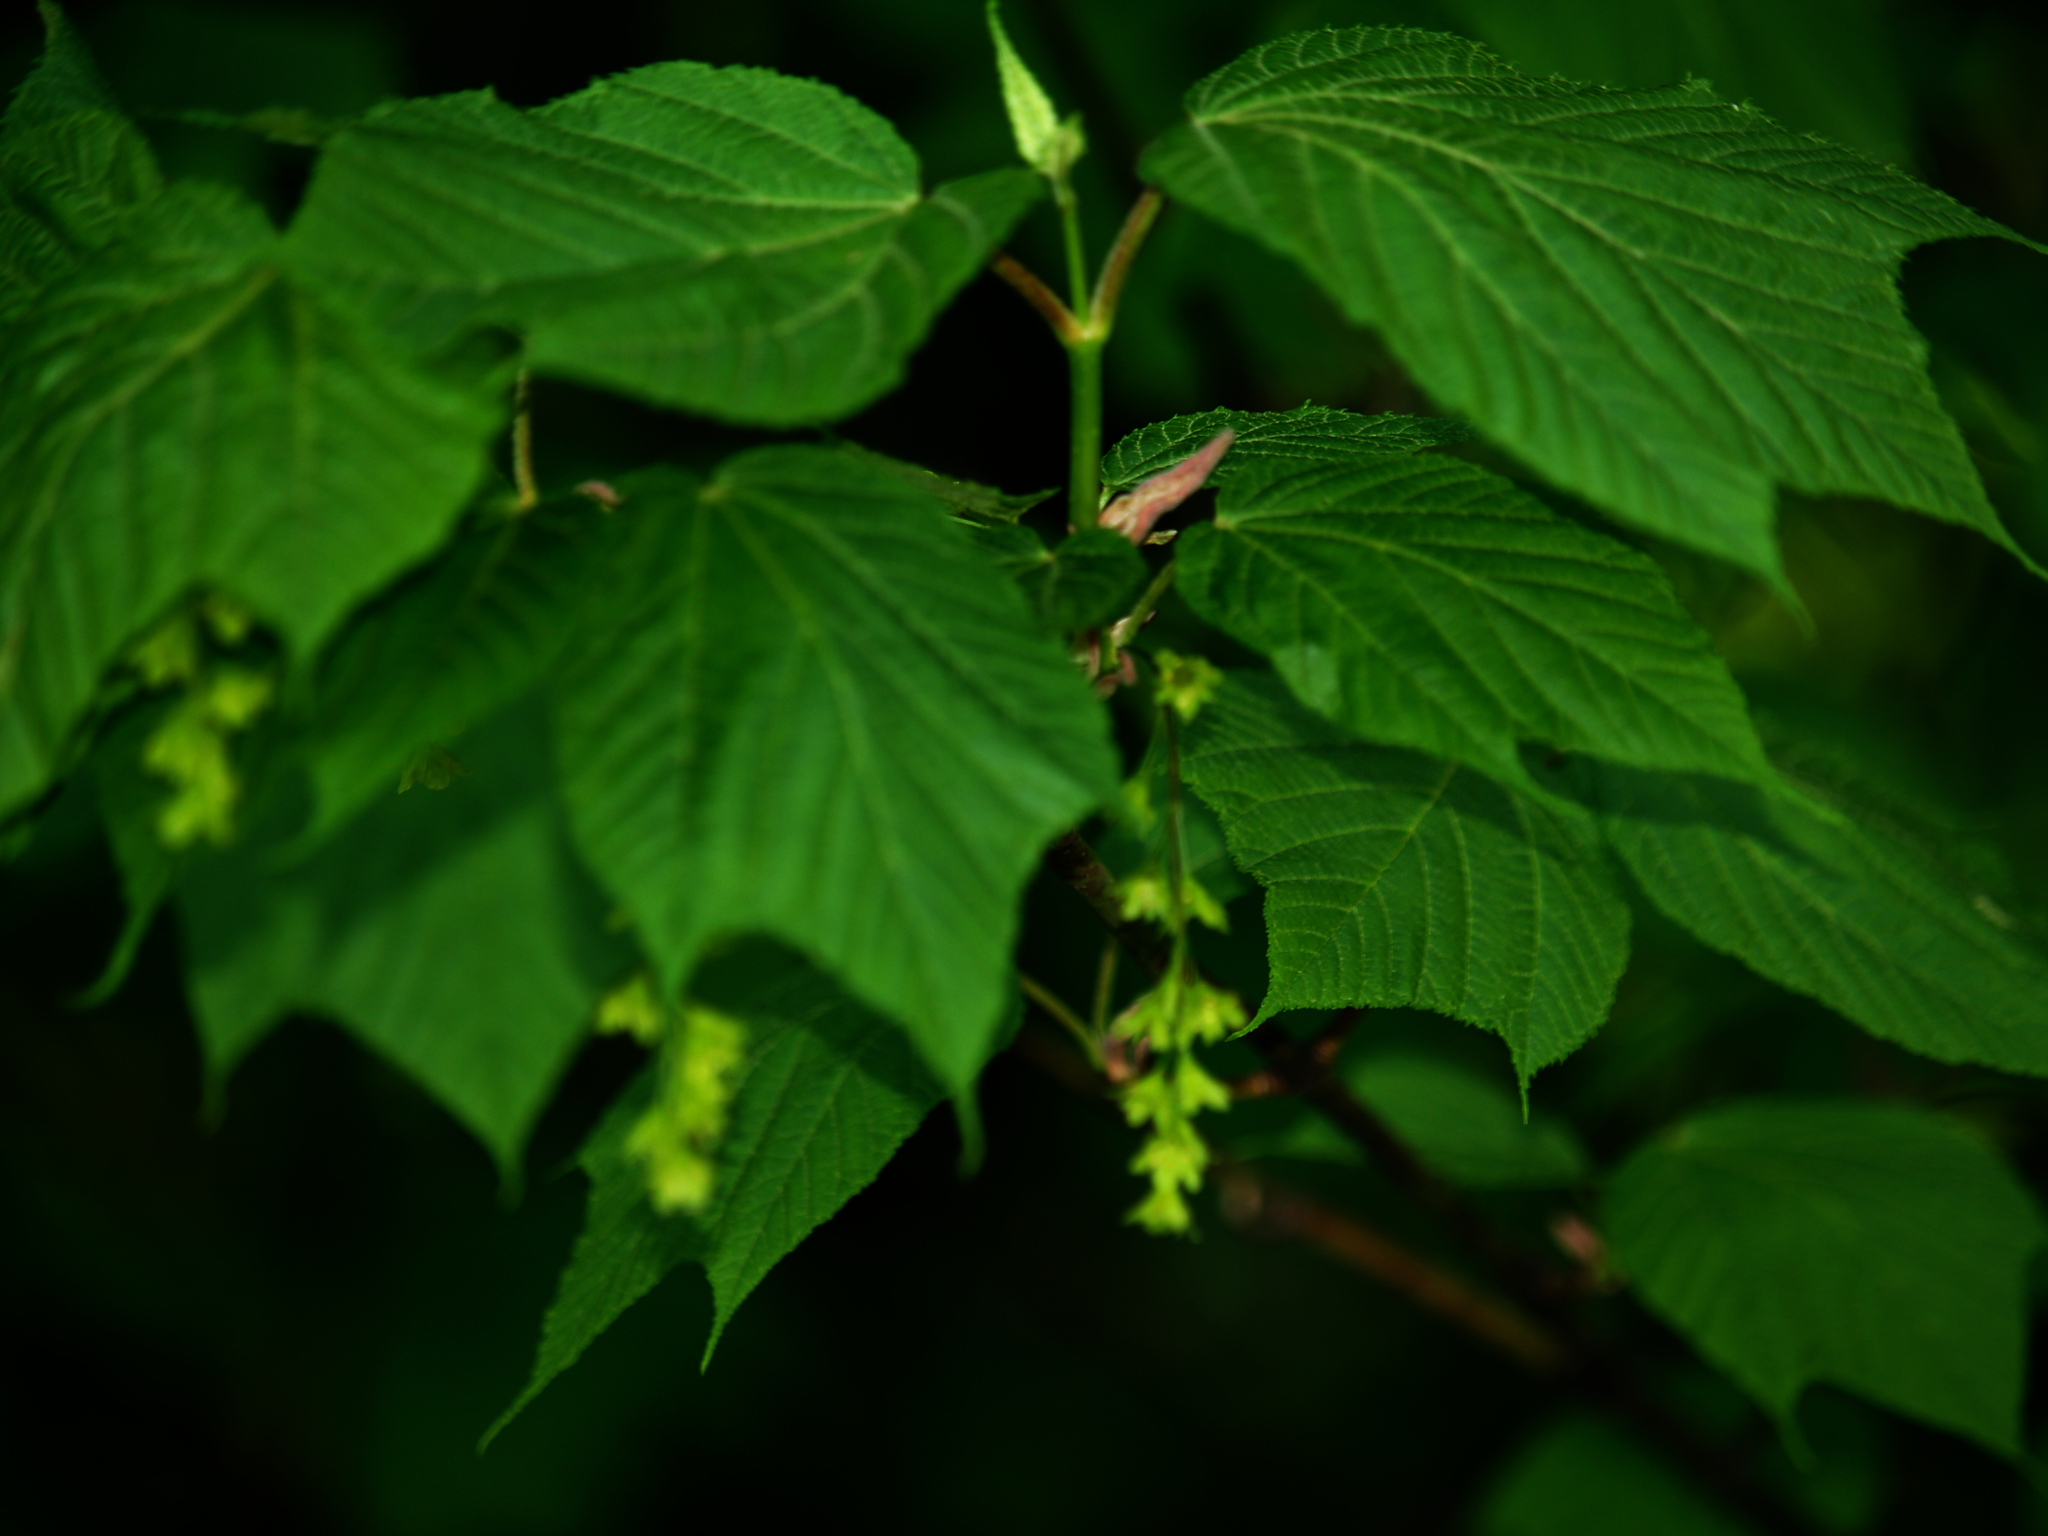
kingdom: Plantae
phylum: Tracheophyta
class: Magnoliopsida
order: Sapindales
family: Sapindaceae
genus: Acer
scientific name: Acer pensylvanicum
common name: Moosewood
